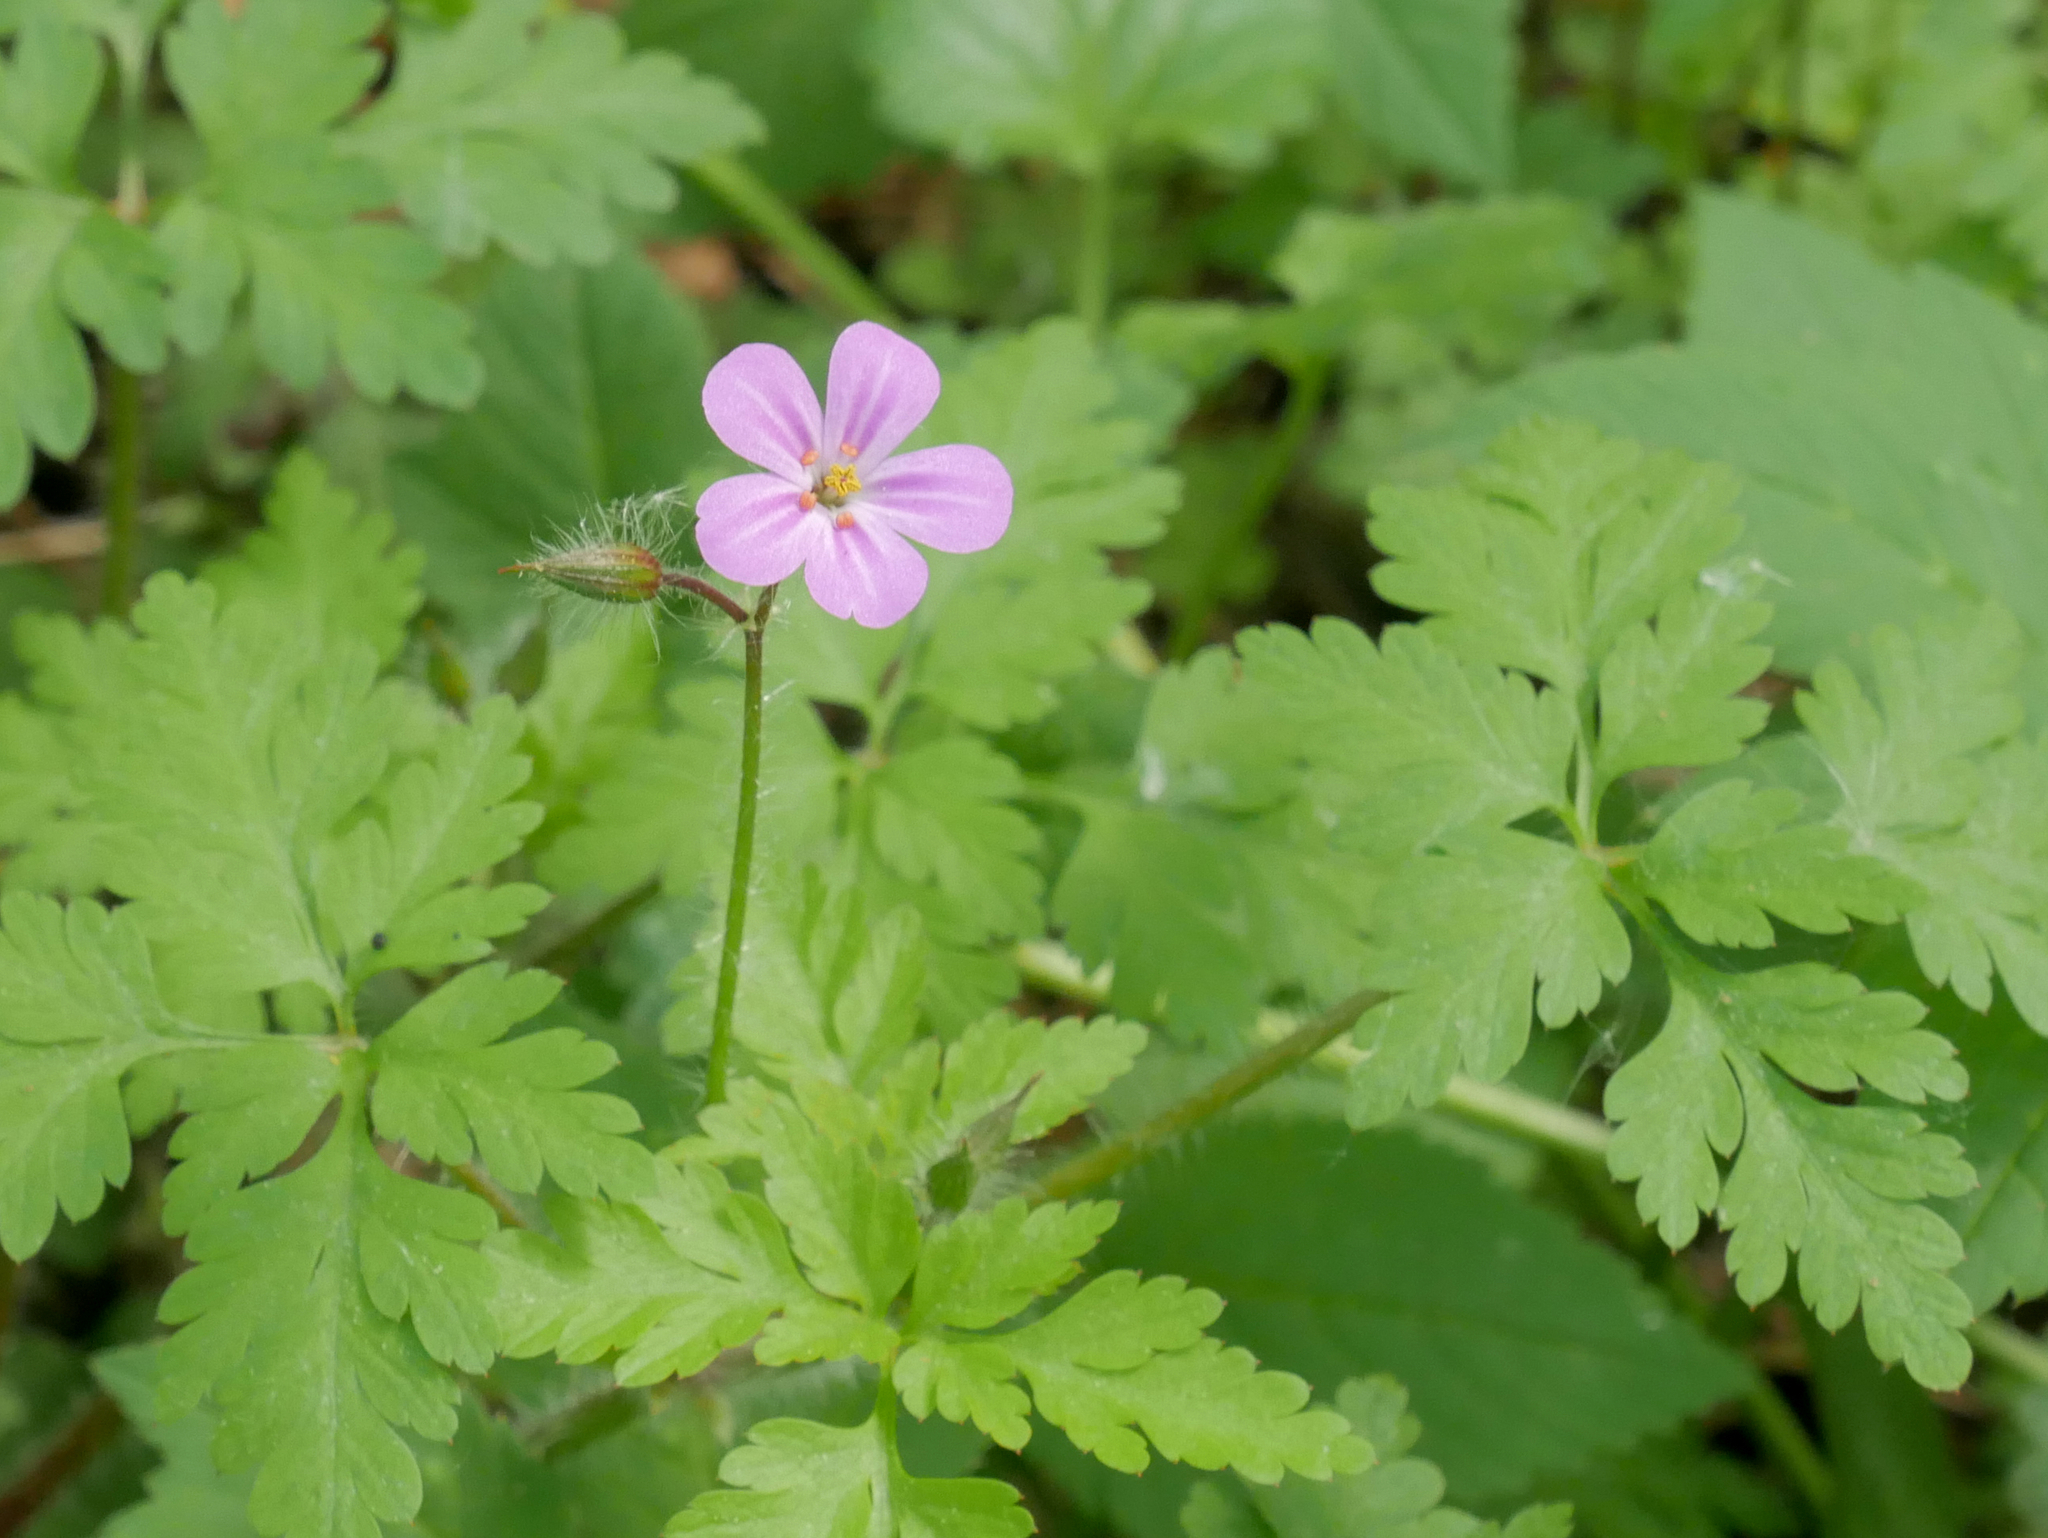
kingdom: Plantae
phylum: Tracheophyta
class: Magnoliopsida
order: Geraniales
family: Geraniaceae
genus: Geranium
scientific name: Geranium robertianum
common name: Herb-robert
